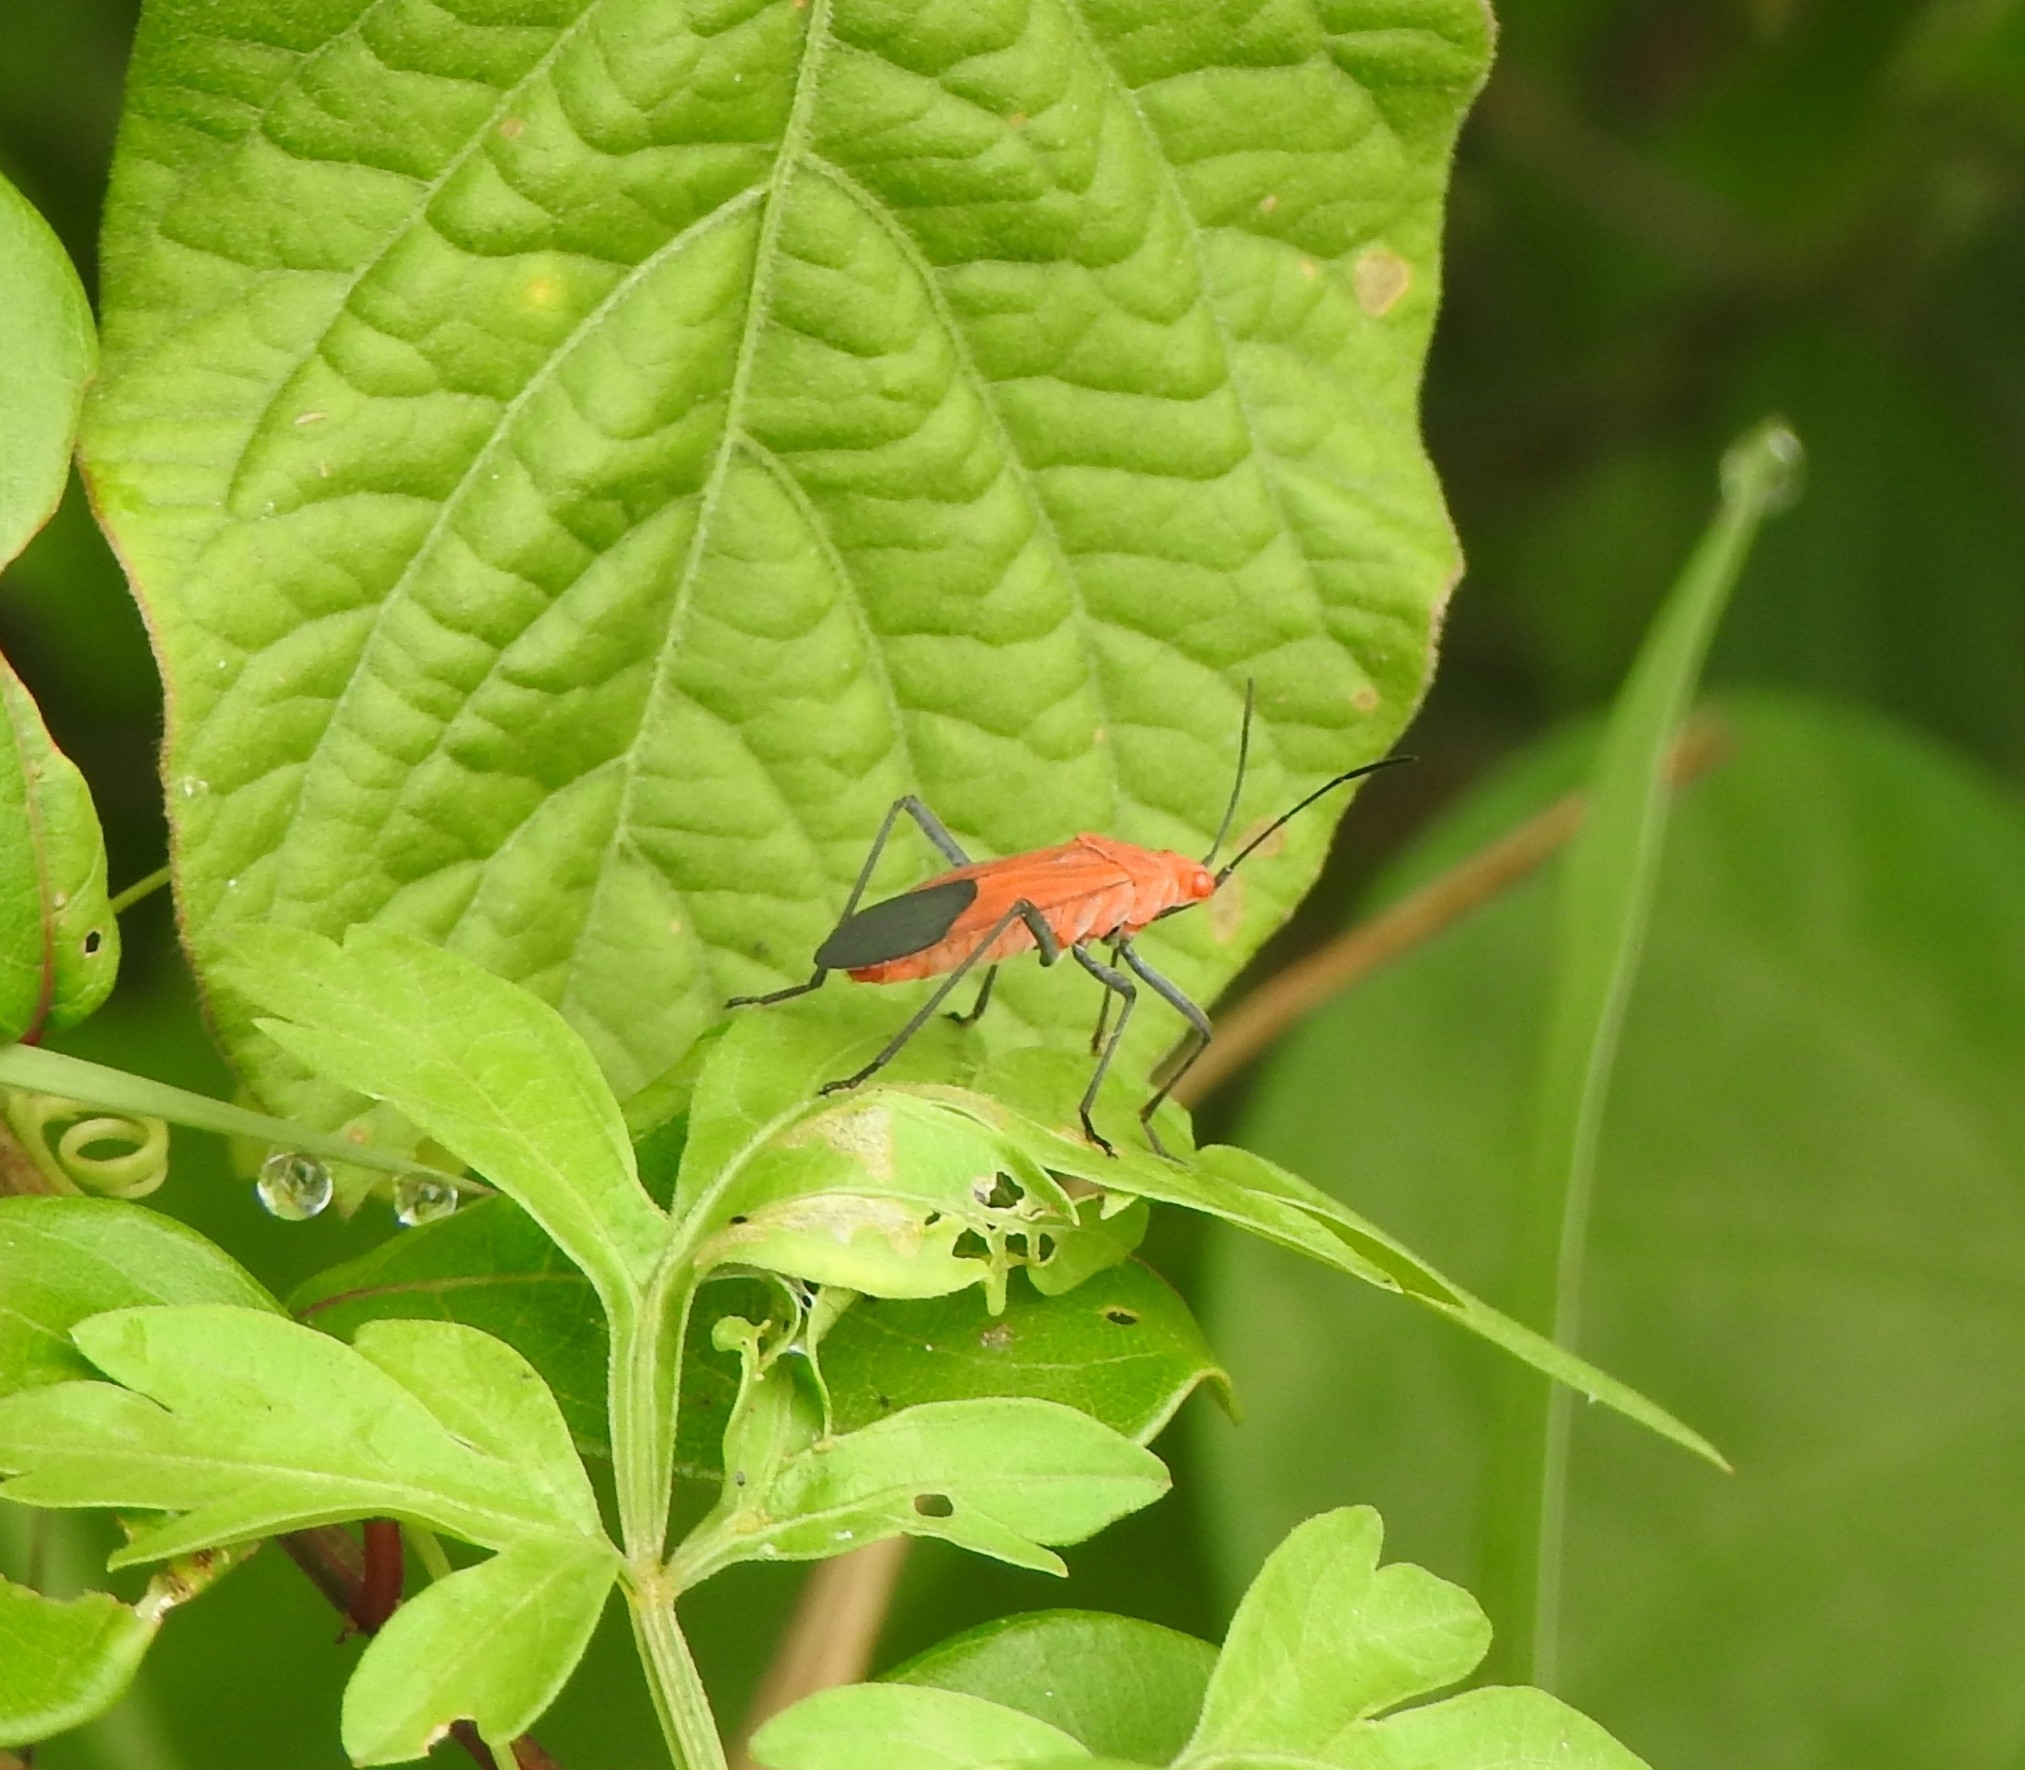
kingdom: Animalia
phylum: Arthropoda
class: Insecta
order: Hemiptera
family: Rhopalidae
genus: Leptocoris
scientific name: Leptocoris augur
